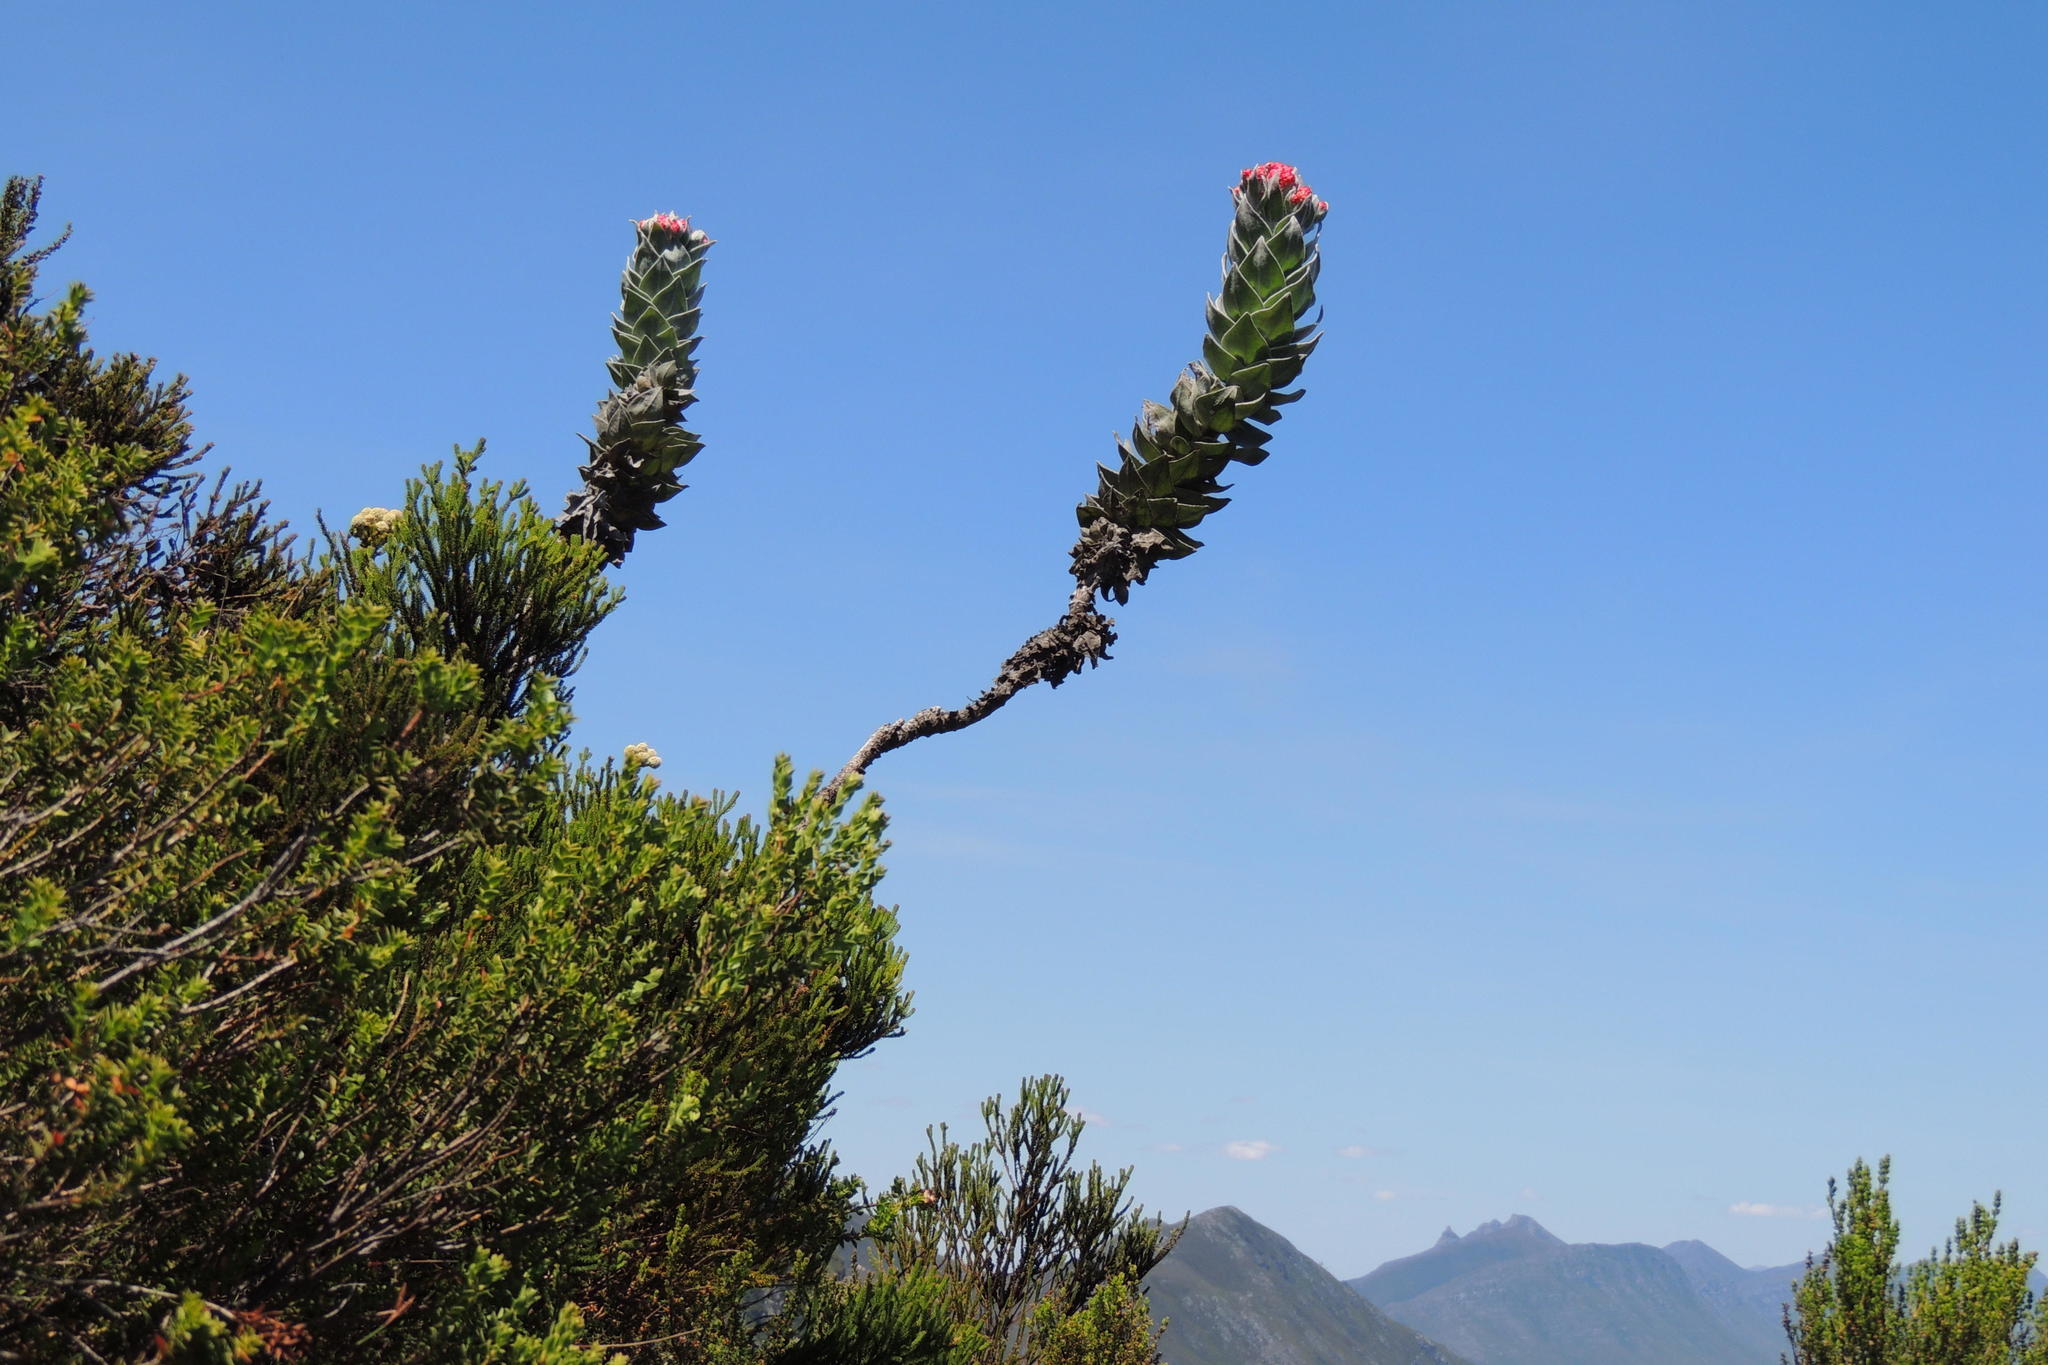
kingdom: Plantae
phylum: Tracheophyta
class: Magnoliopsida
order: Asterales
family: Asteraceae
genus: Syncarpha
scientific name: Syncarpha eximia
